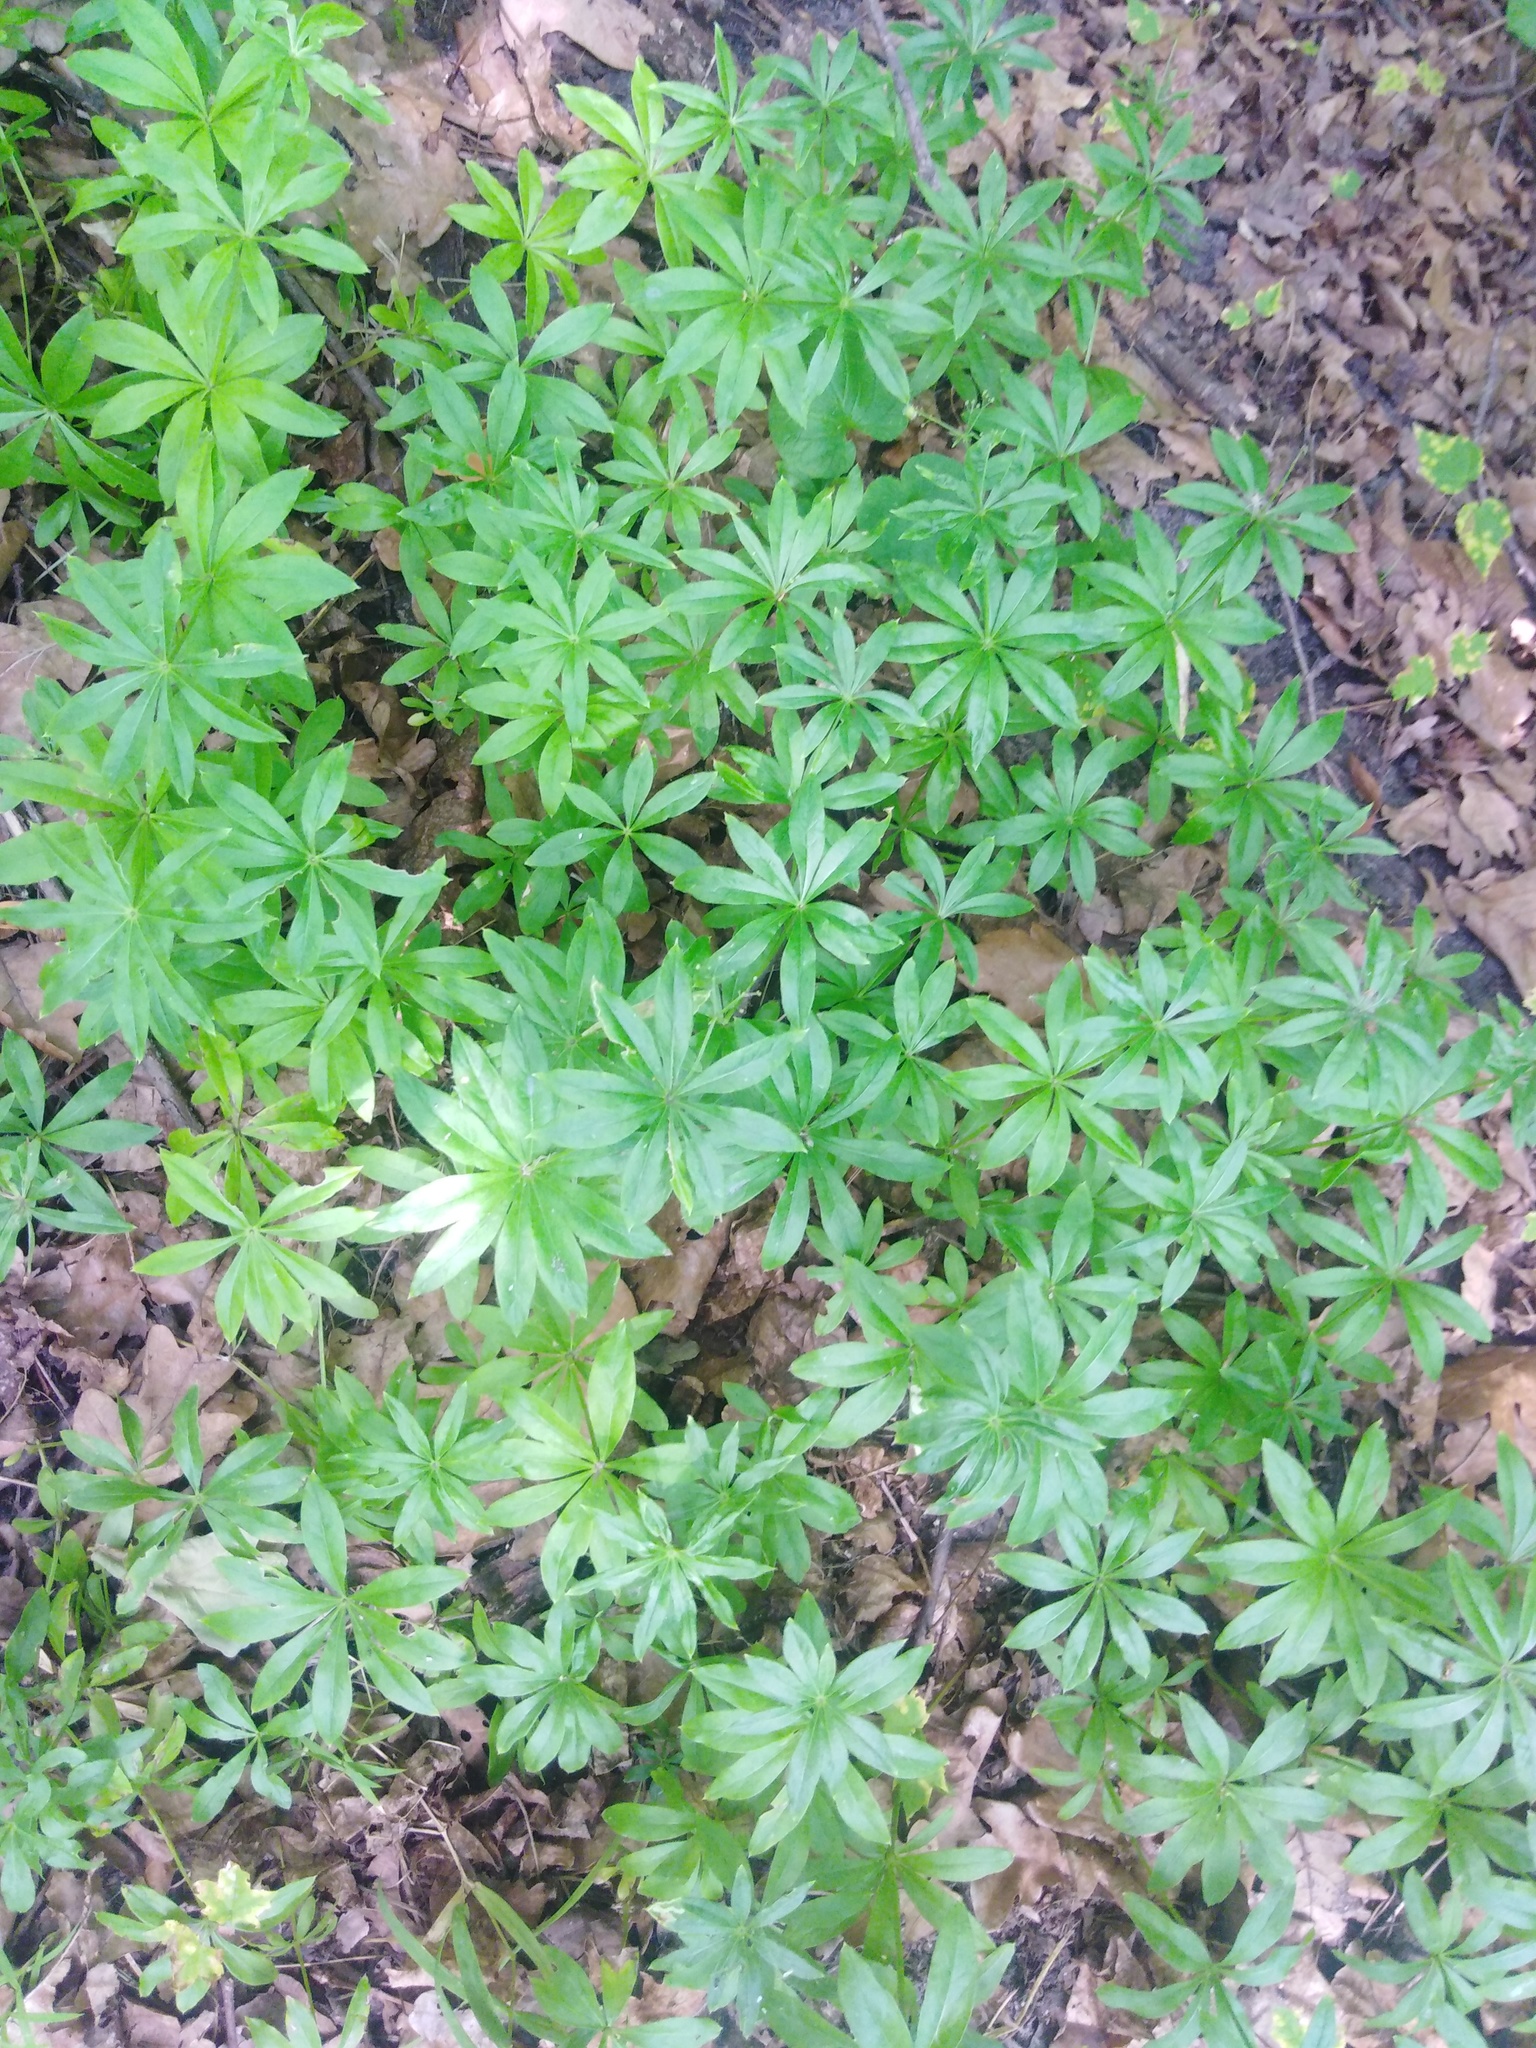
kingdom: Plantae
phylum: Tracheophyta
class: Magnoliopsida
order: Gentianales
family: Rubiaceae
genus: Galium
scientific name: Galium odoratum
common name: Sweet woodruff
